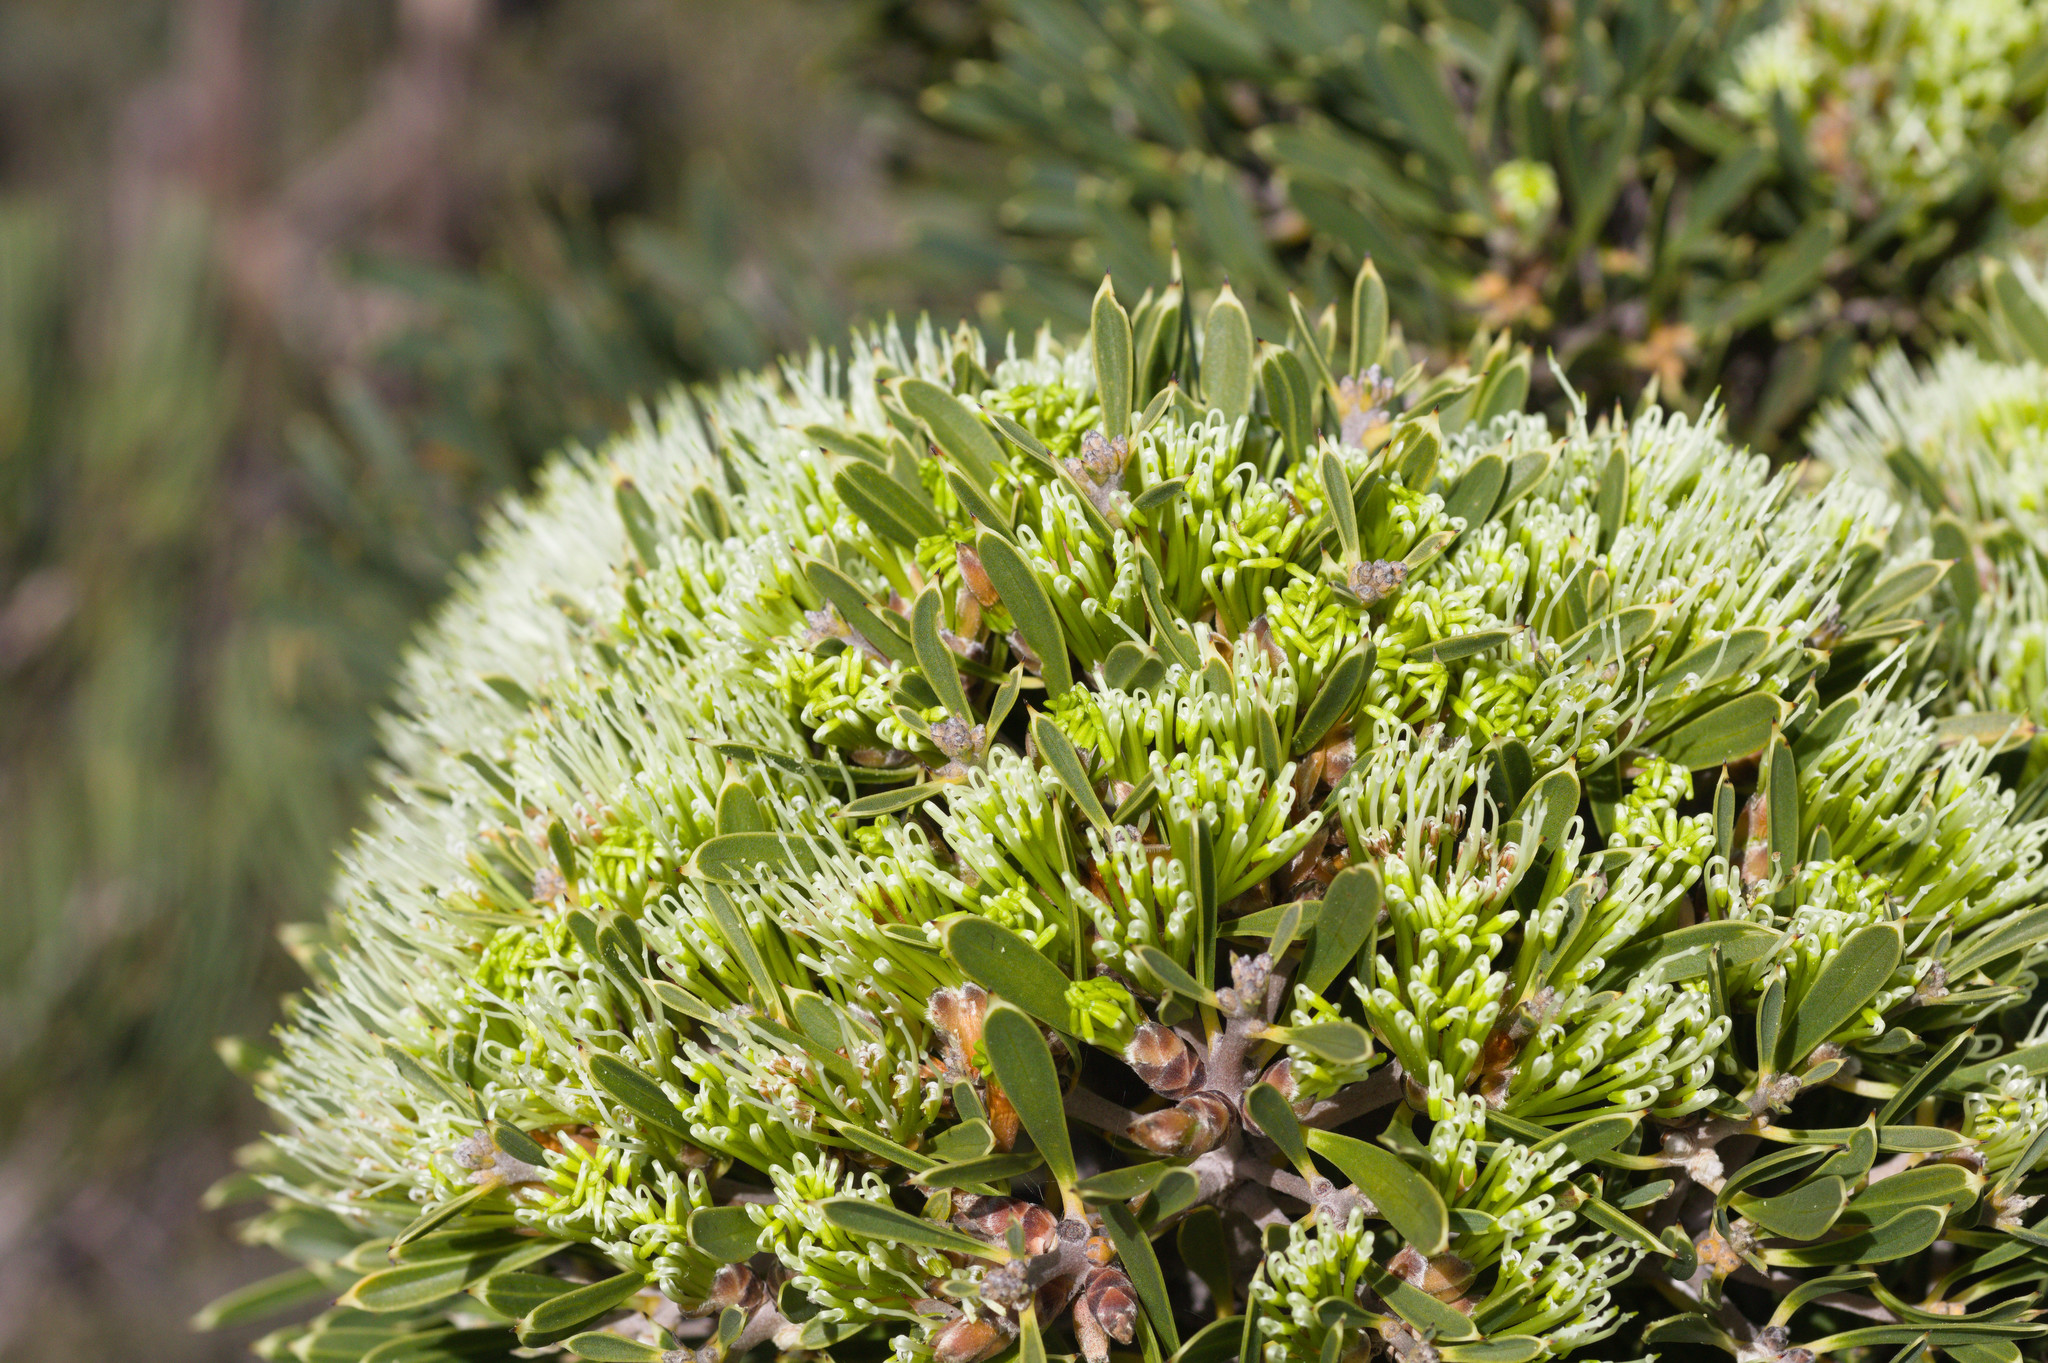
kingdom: Plantae
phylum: Tracheophyta
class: Magnoliopsida
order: Proteales
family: Proteaceae
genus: Hakea
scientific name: Hakea corymbosa
